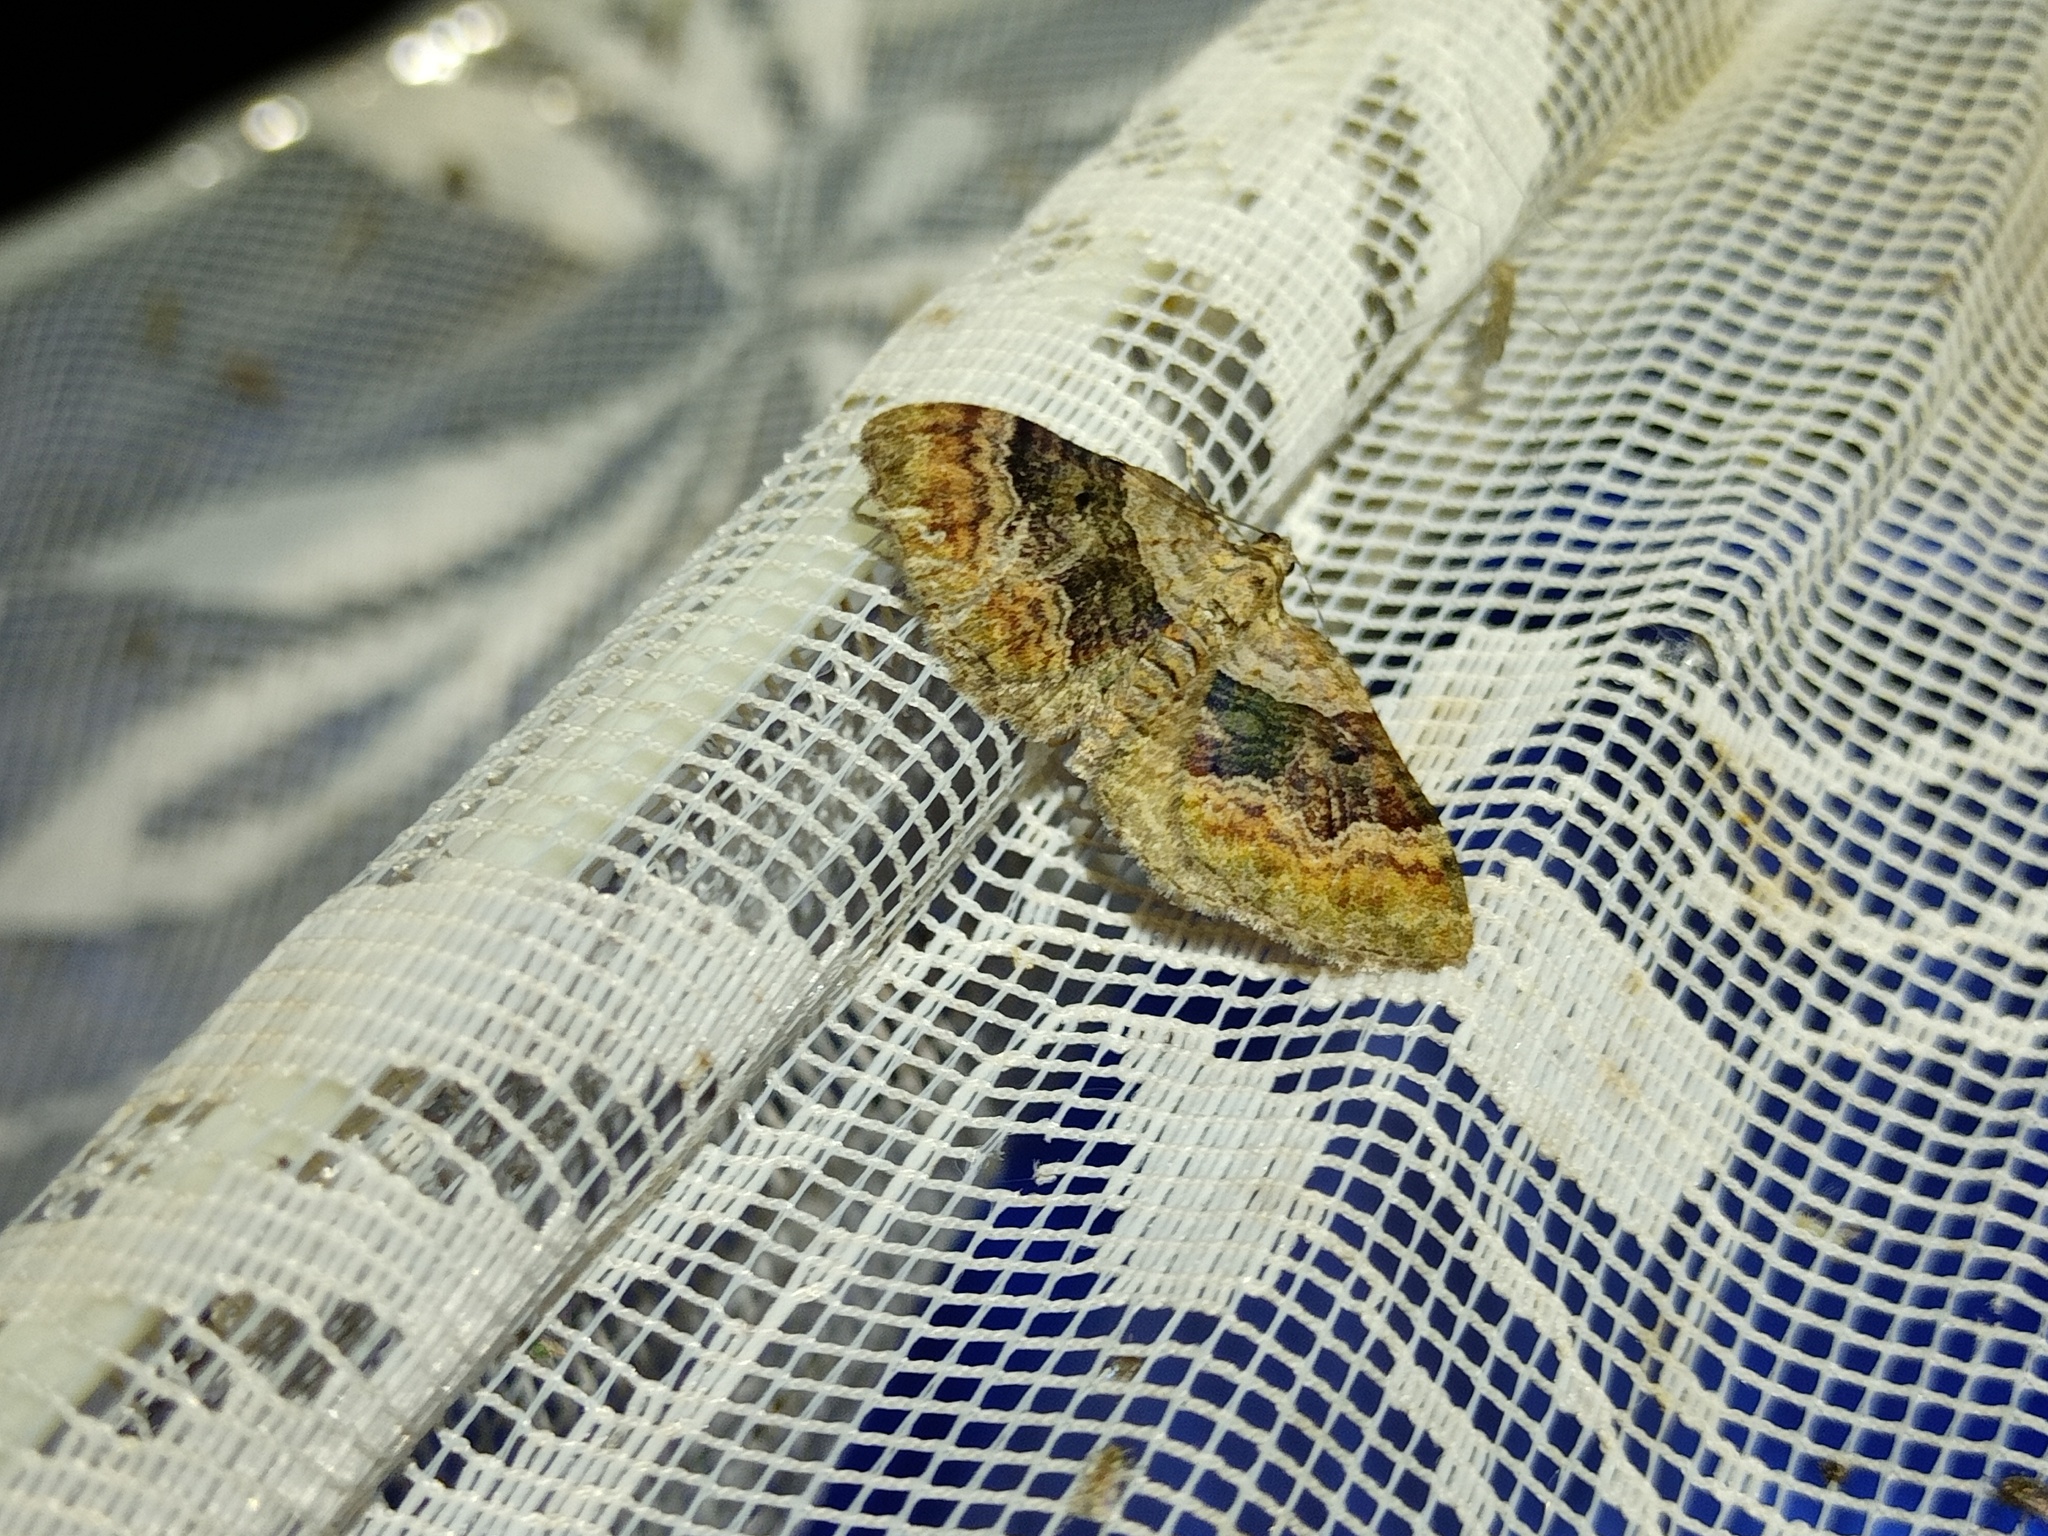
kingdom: Animalia
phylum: Arthropoda
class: Insecta
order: Lepidoptera
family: Geometridae
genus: Xanthorhoe
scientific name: Xanthorhoe quadrifasiata
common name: Large twin-spot carpet
